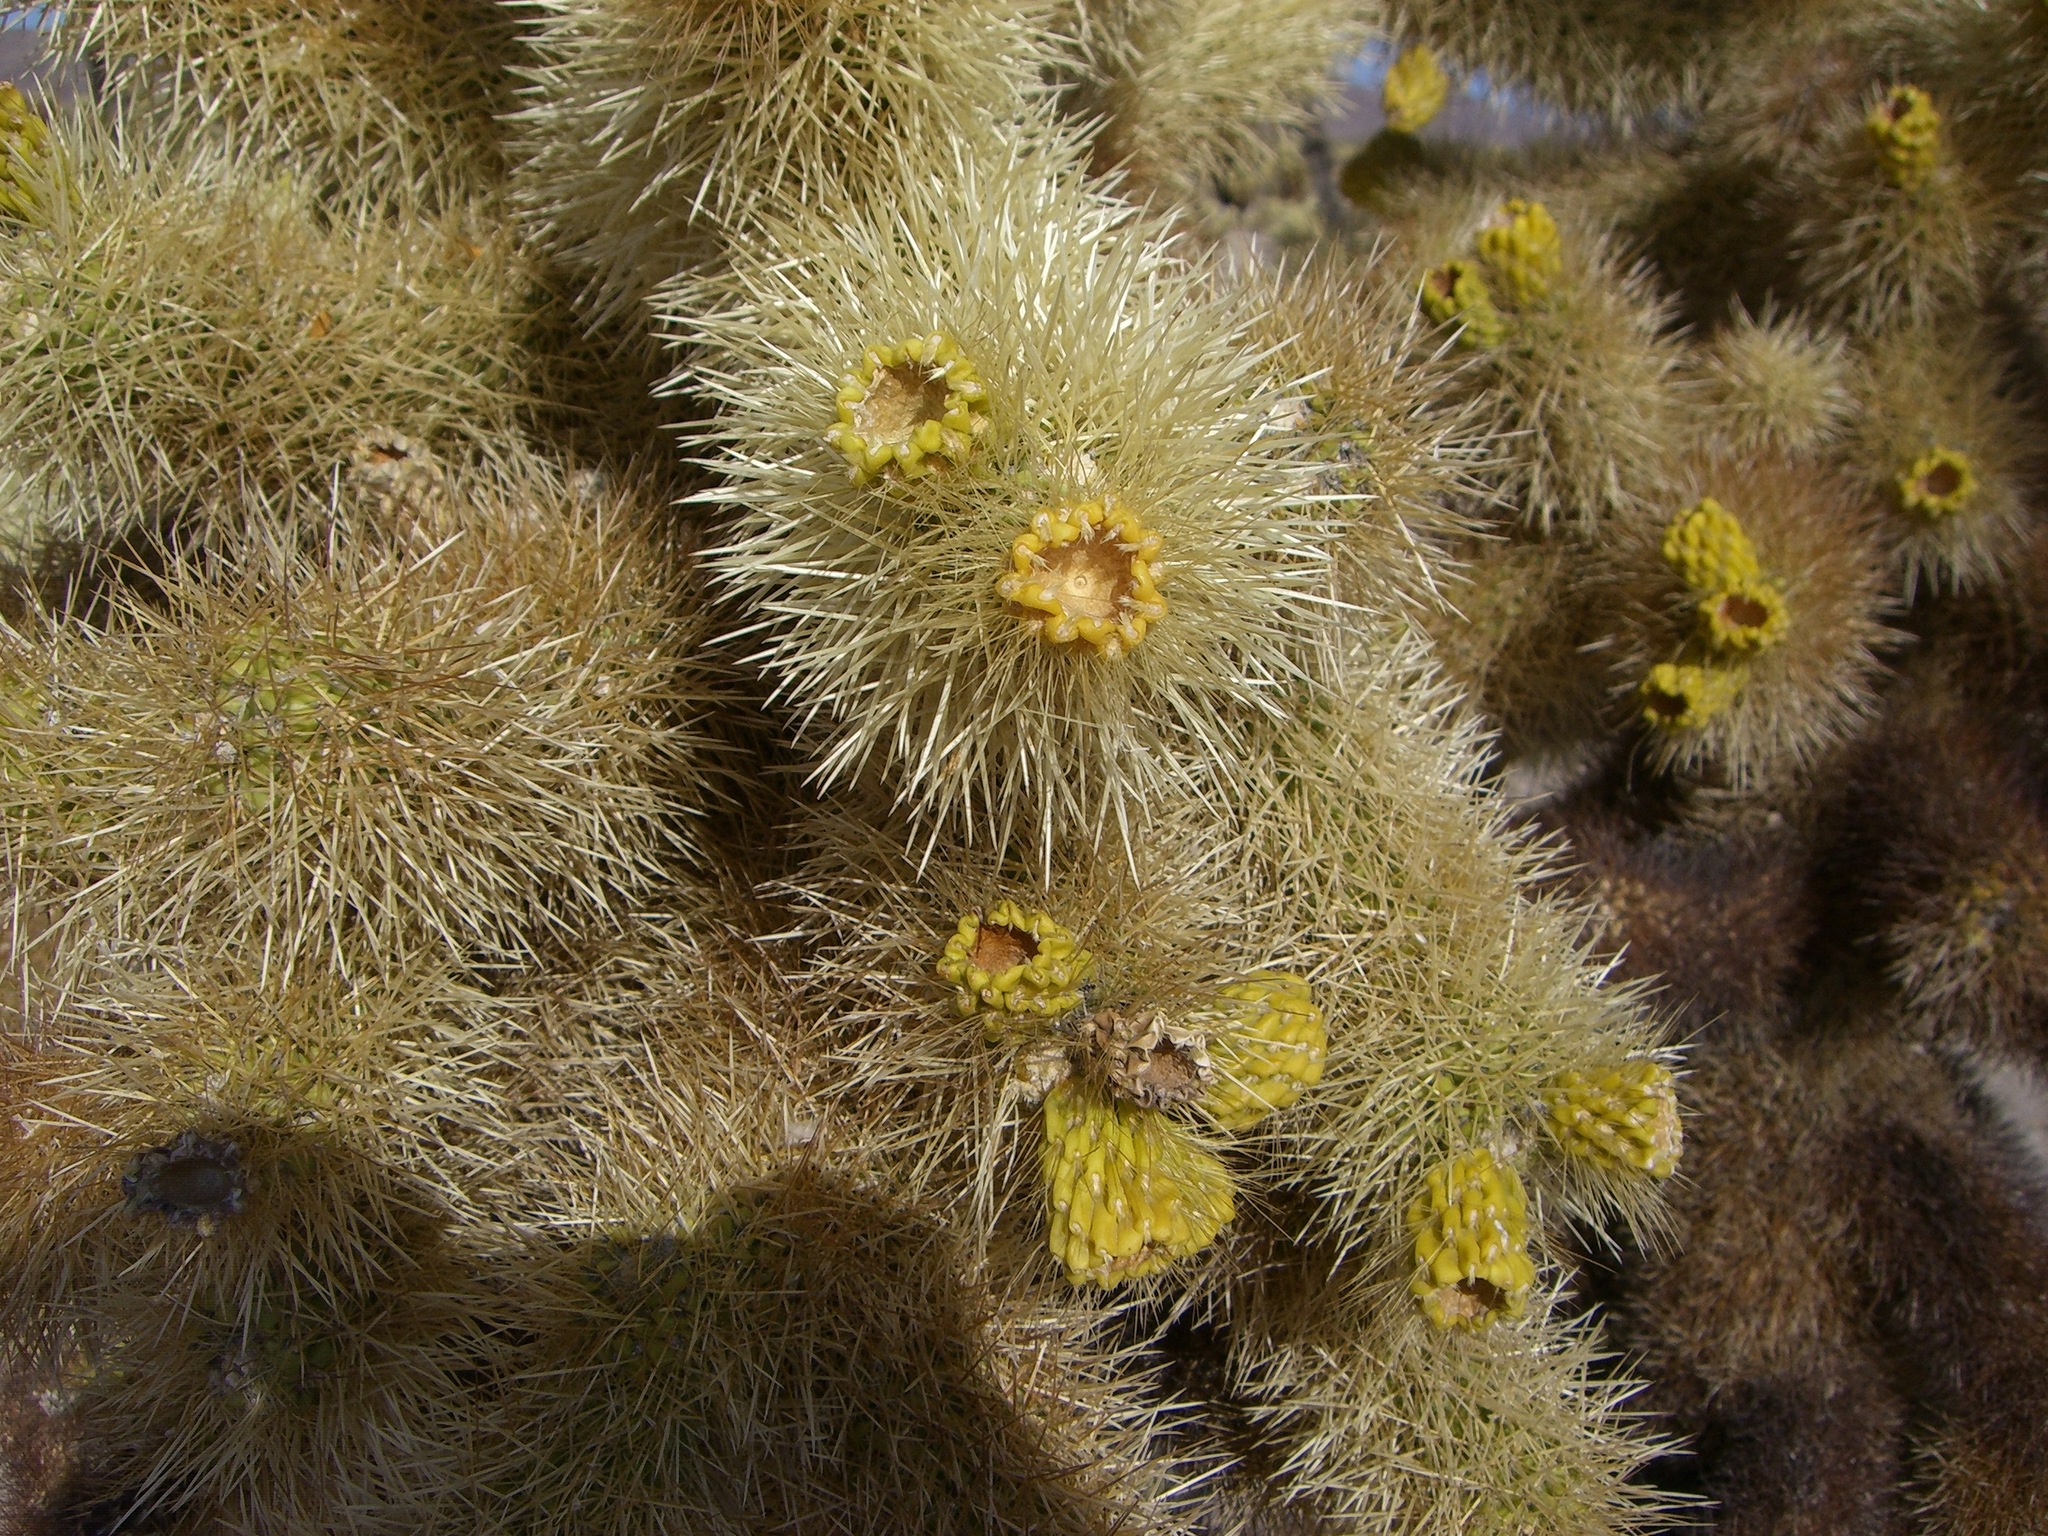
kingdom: Plantae
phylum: Tracheophyta
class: Magnoliopsida
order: Caryophyllales
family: Cactaceae
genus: Cylindropuntia
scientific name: Cylindropuntia fosbergii
